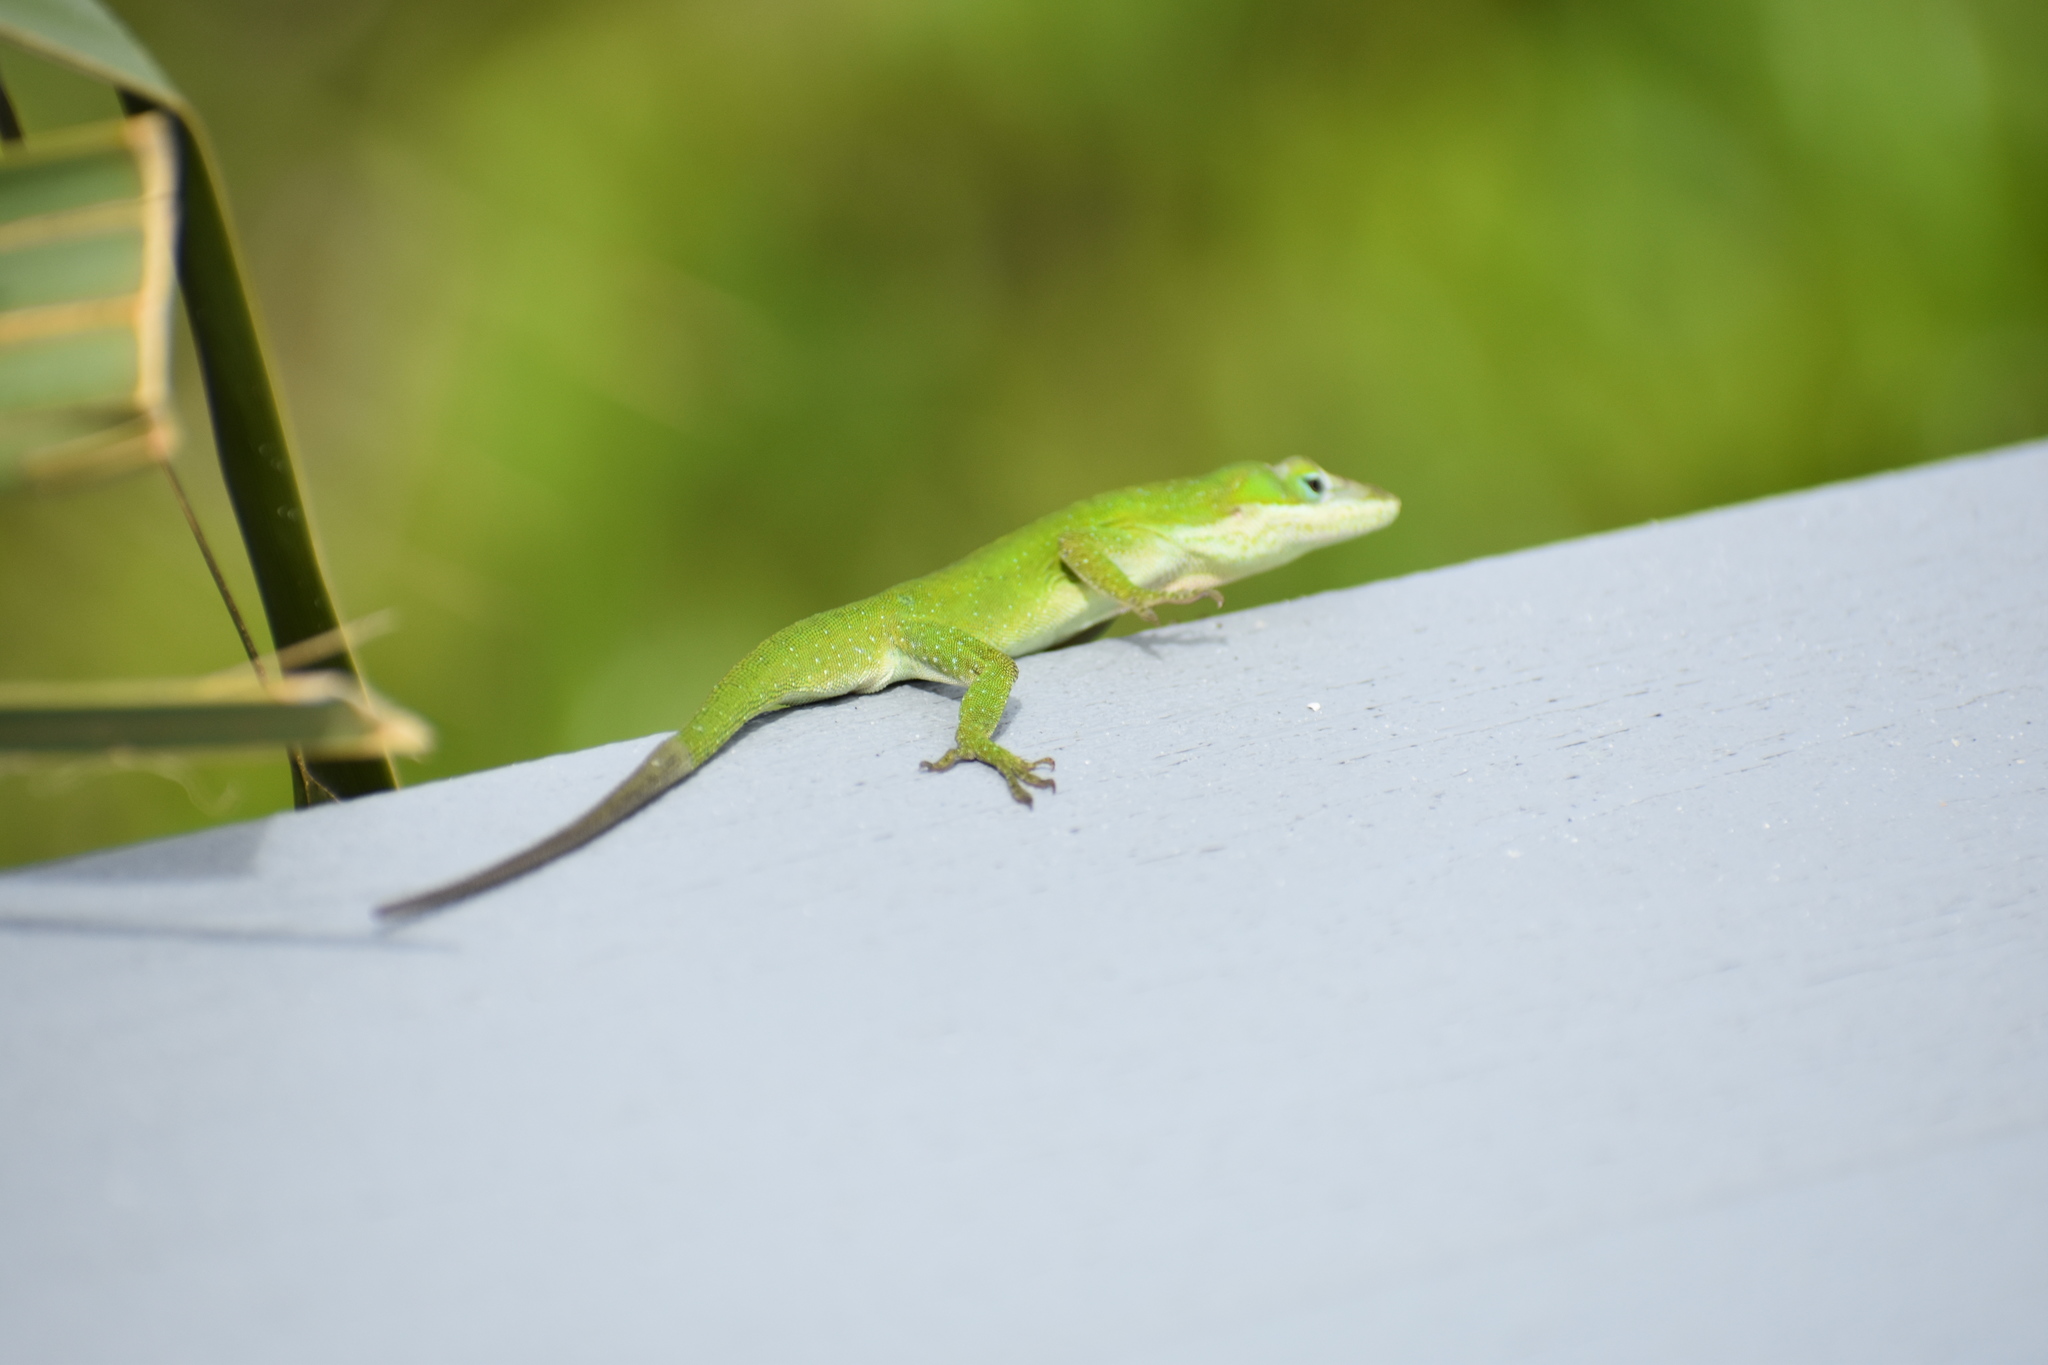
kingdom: Animalia
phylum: Chordata
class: Squamata
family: Dactyloidae
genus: Anolis
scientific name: Anolis carolinensis
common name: Green anole
